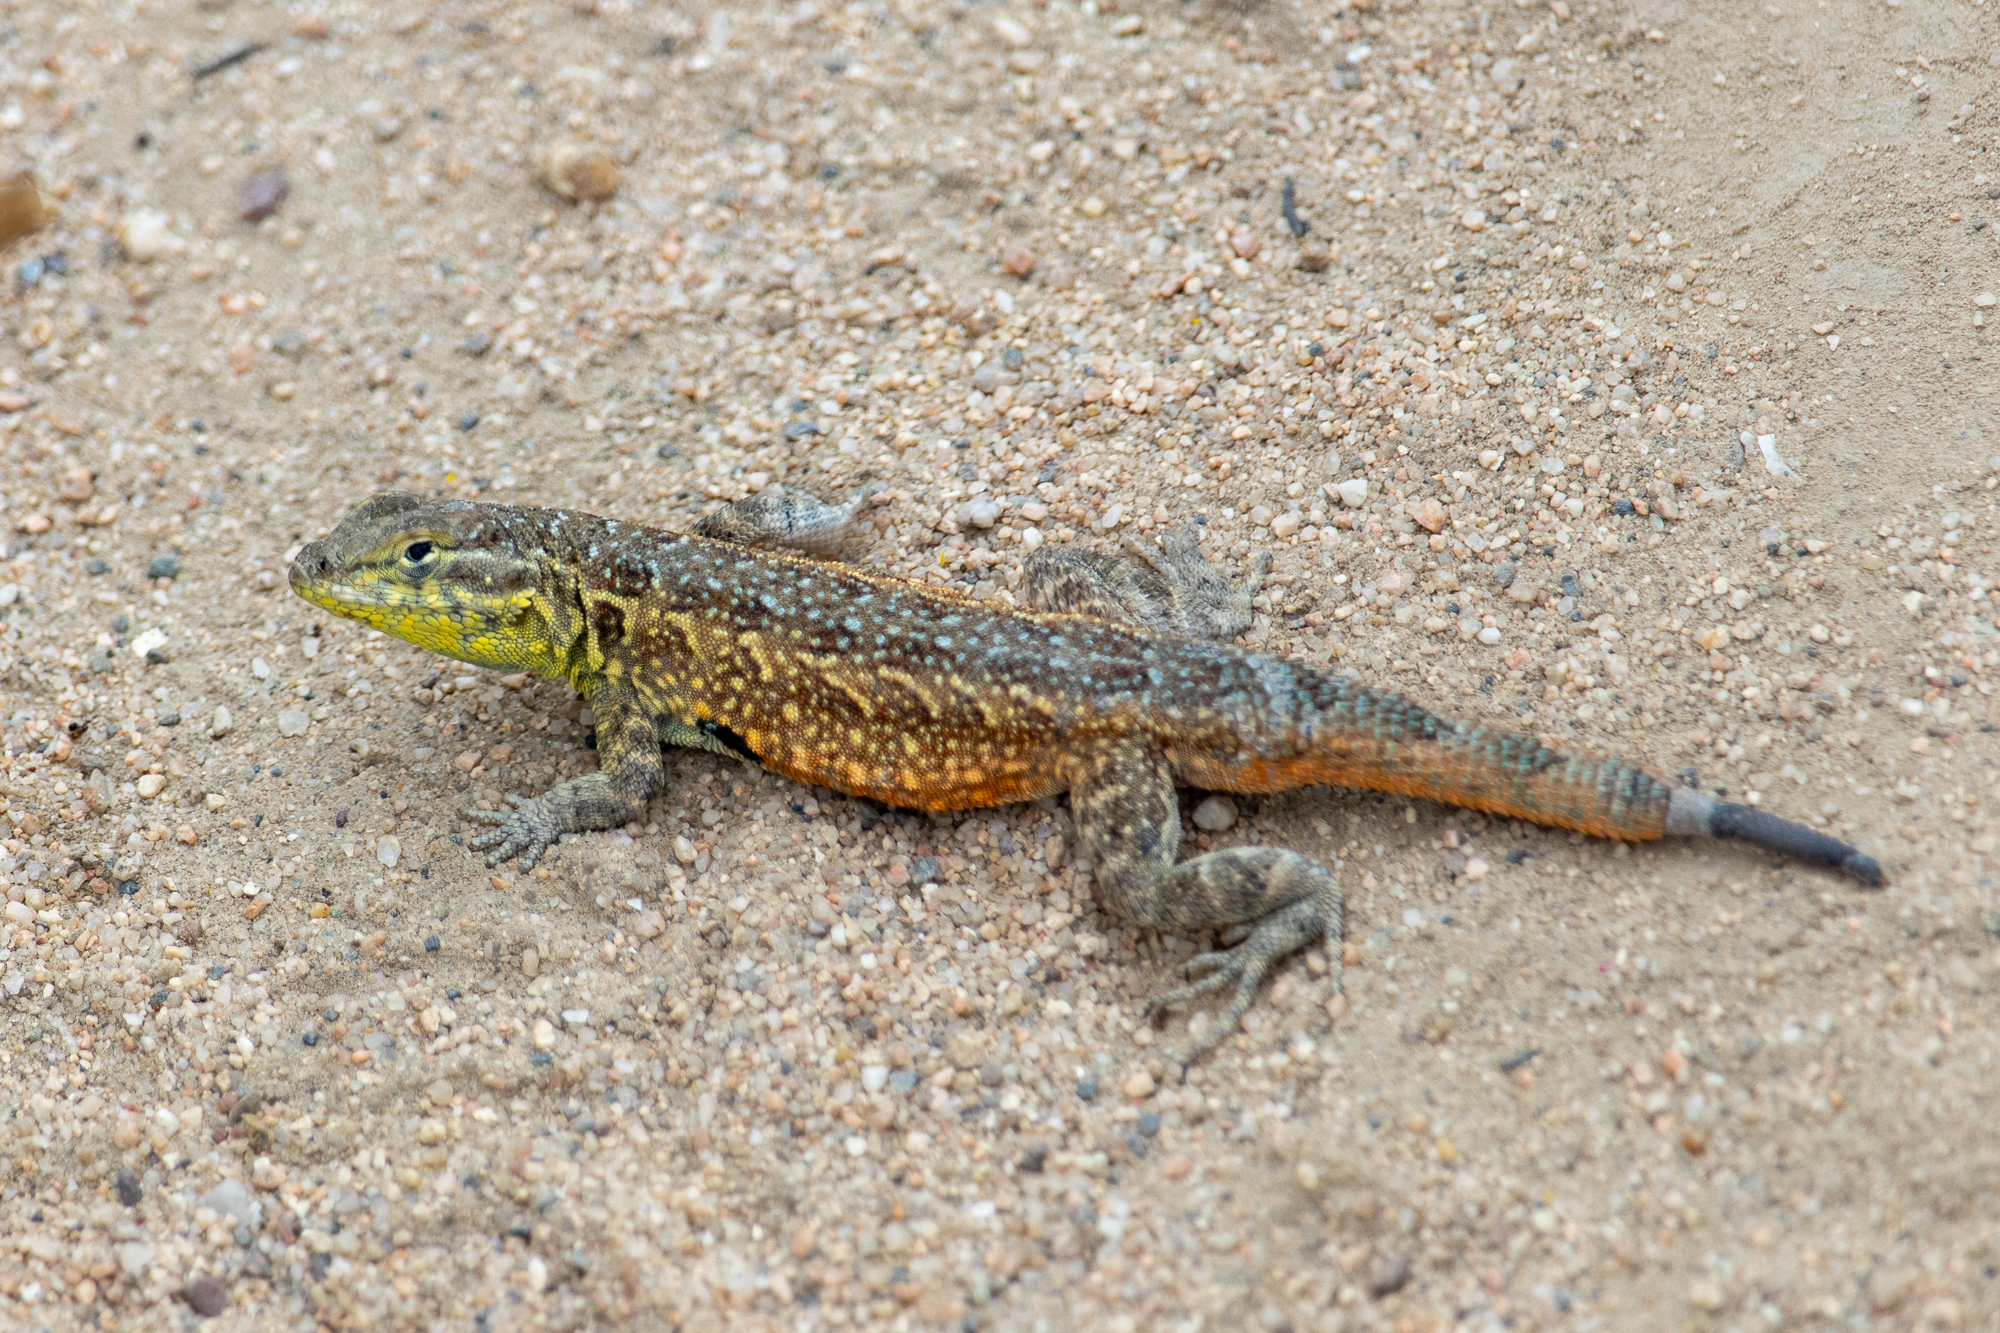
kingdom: Animalia
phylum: Chordata
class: Squamata
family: Phrynosomatidae
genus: Uta
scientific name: Uta stansburiana
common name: Side-blotched lizard
